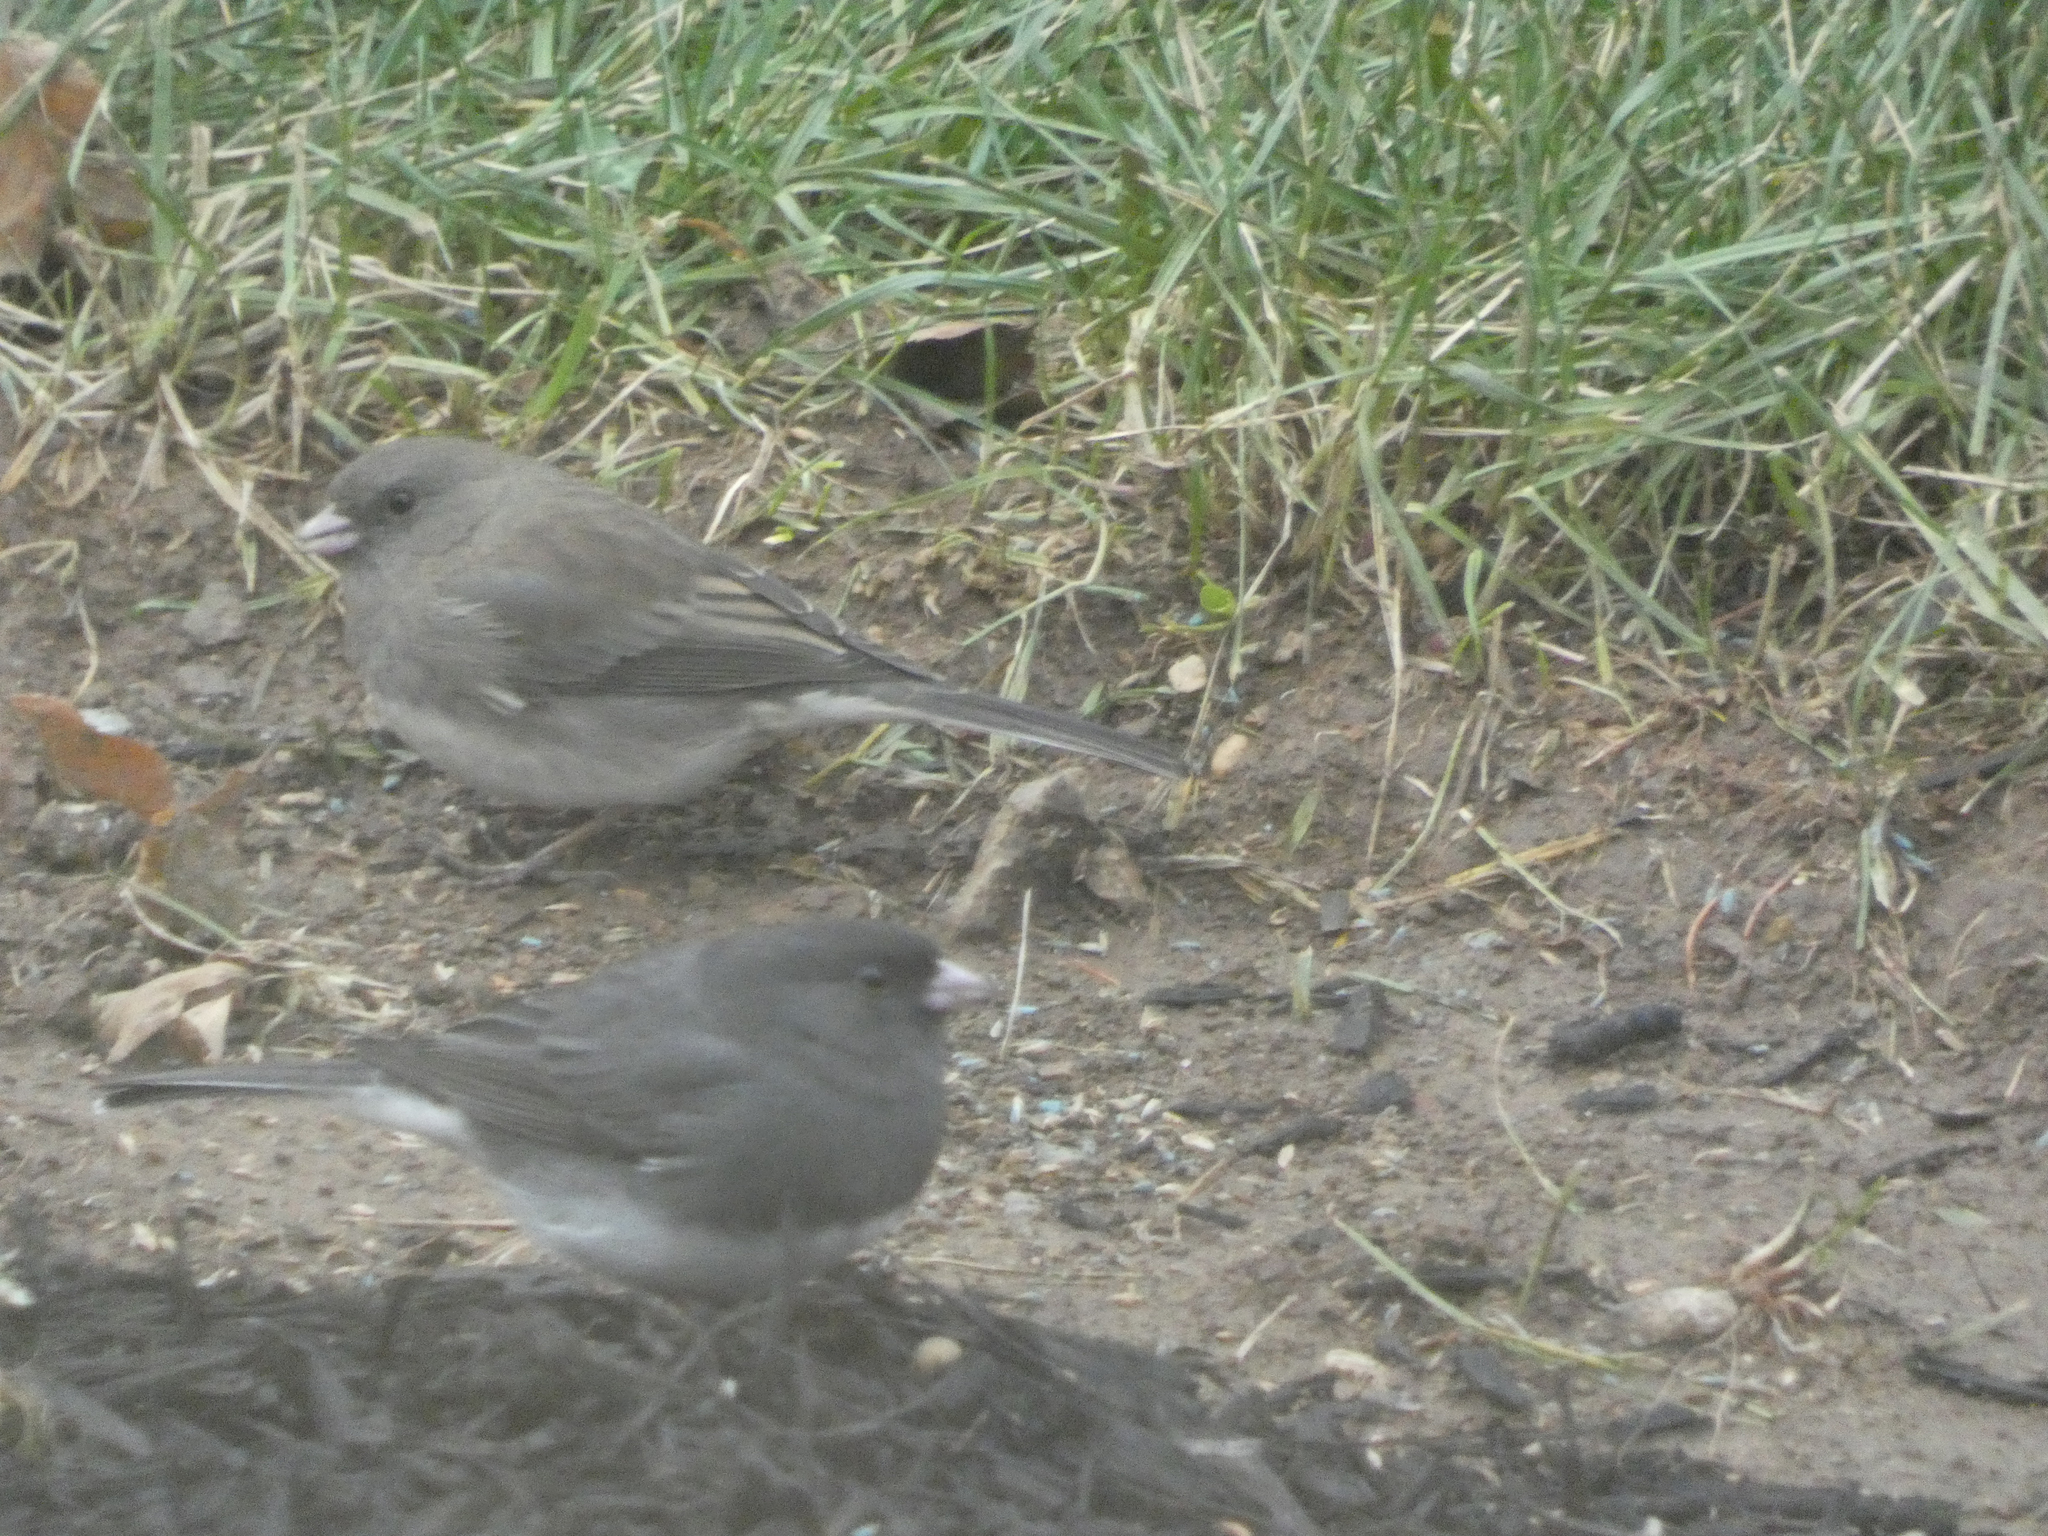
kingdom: Animalia
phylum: Chordata
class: Aves
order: Passeriformes
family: Passerellidae
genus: Junco
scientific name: Junco hyemalis
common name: Dark-eyed junco
